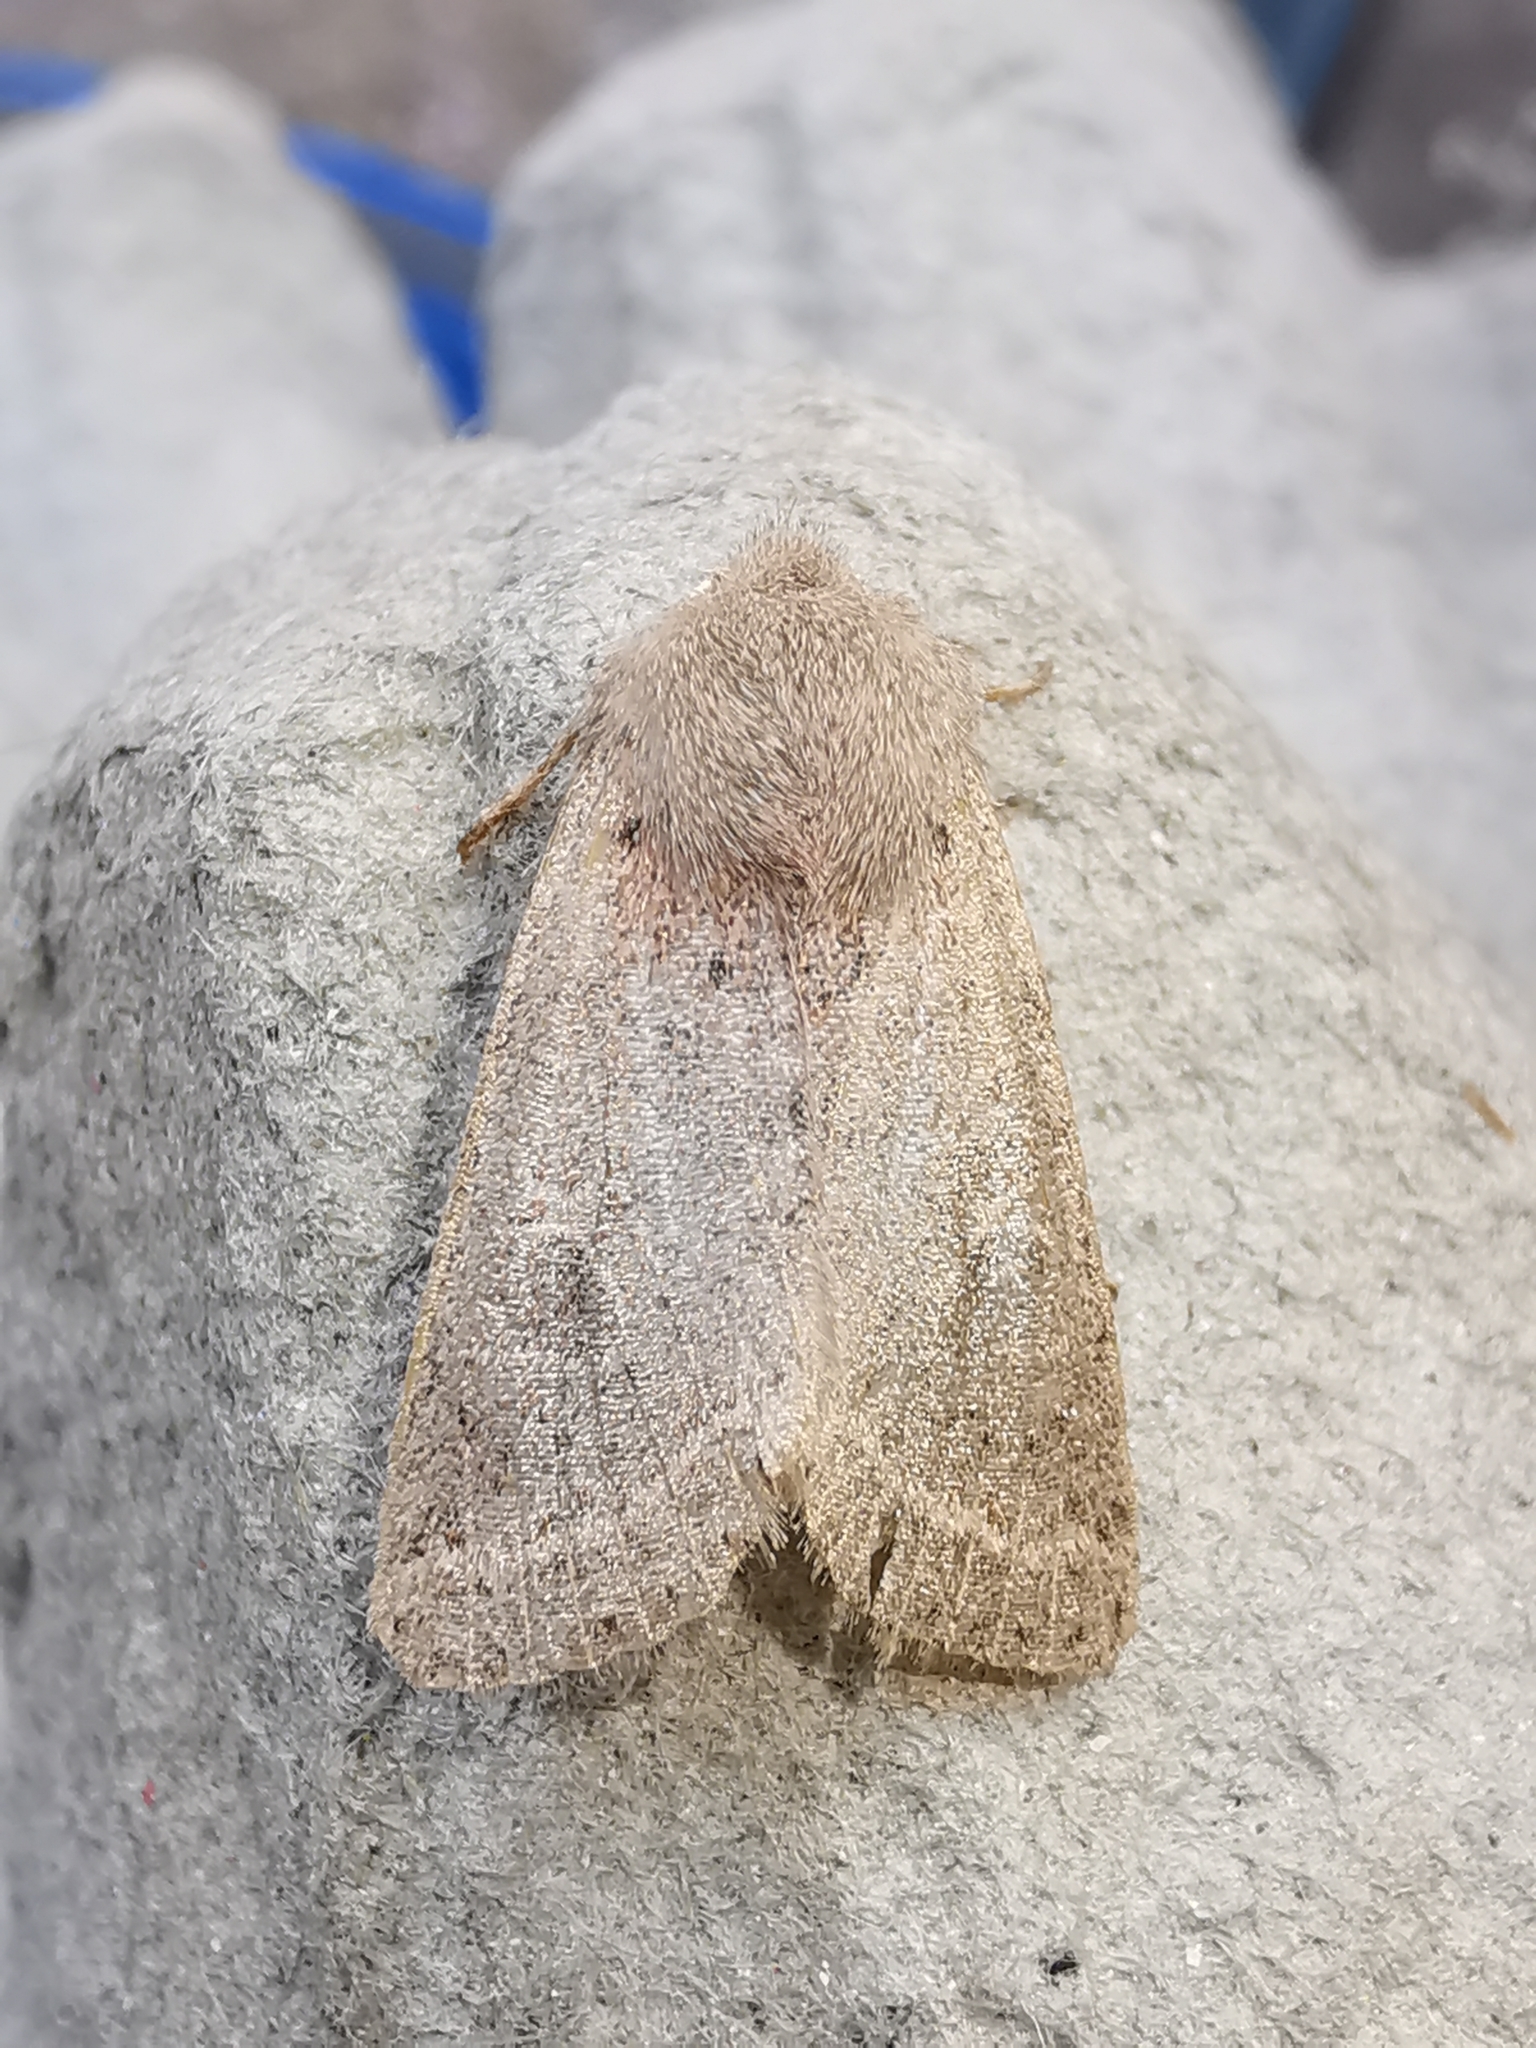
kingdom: Animalia
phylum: Arthropoda
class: Insecta
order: Lepidoptera
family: Noctuidae
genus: Orthosia
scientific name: Orthosia cerasi
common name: Common quaker
